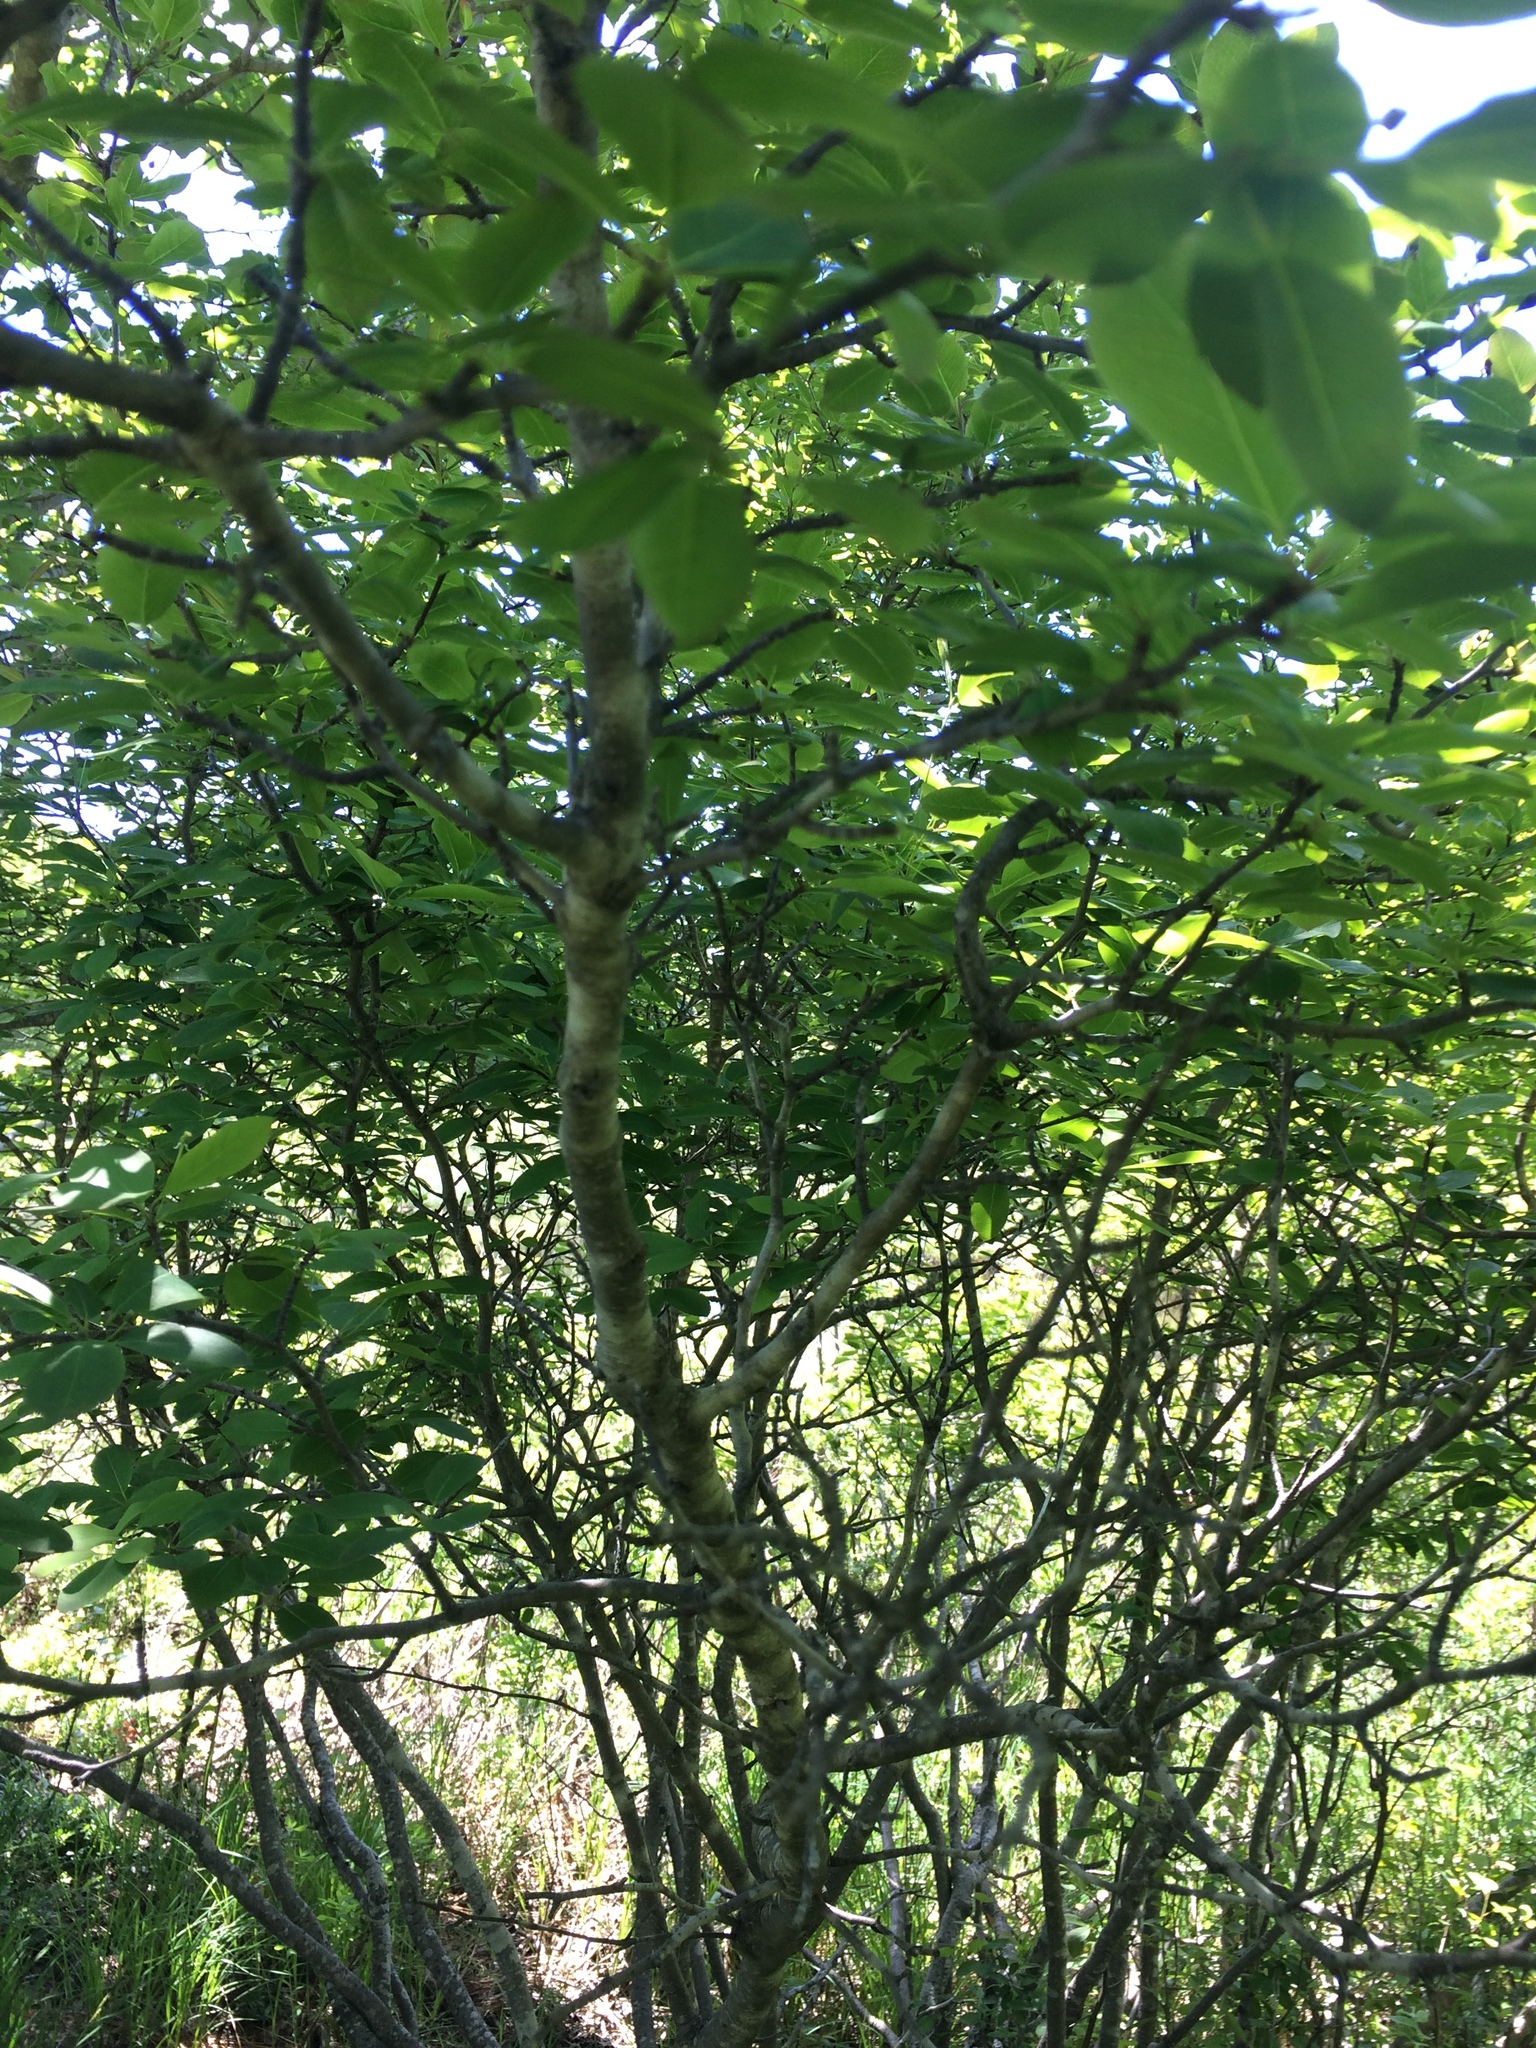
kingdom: Plantae
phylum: Tracheophyta
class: Magnoliopsida
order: Aquifoliales
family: Aquifoliaceae
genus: Ilex
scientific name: Ilex mucronata
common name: Catberry
